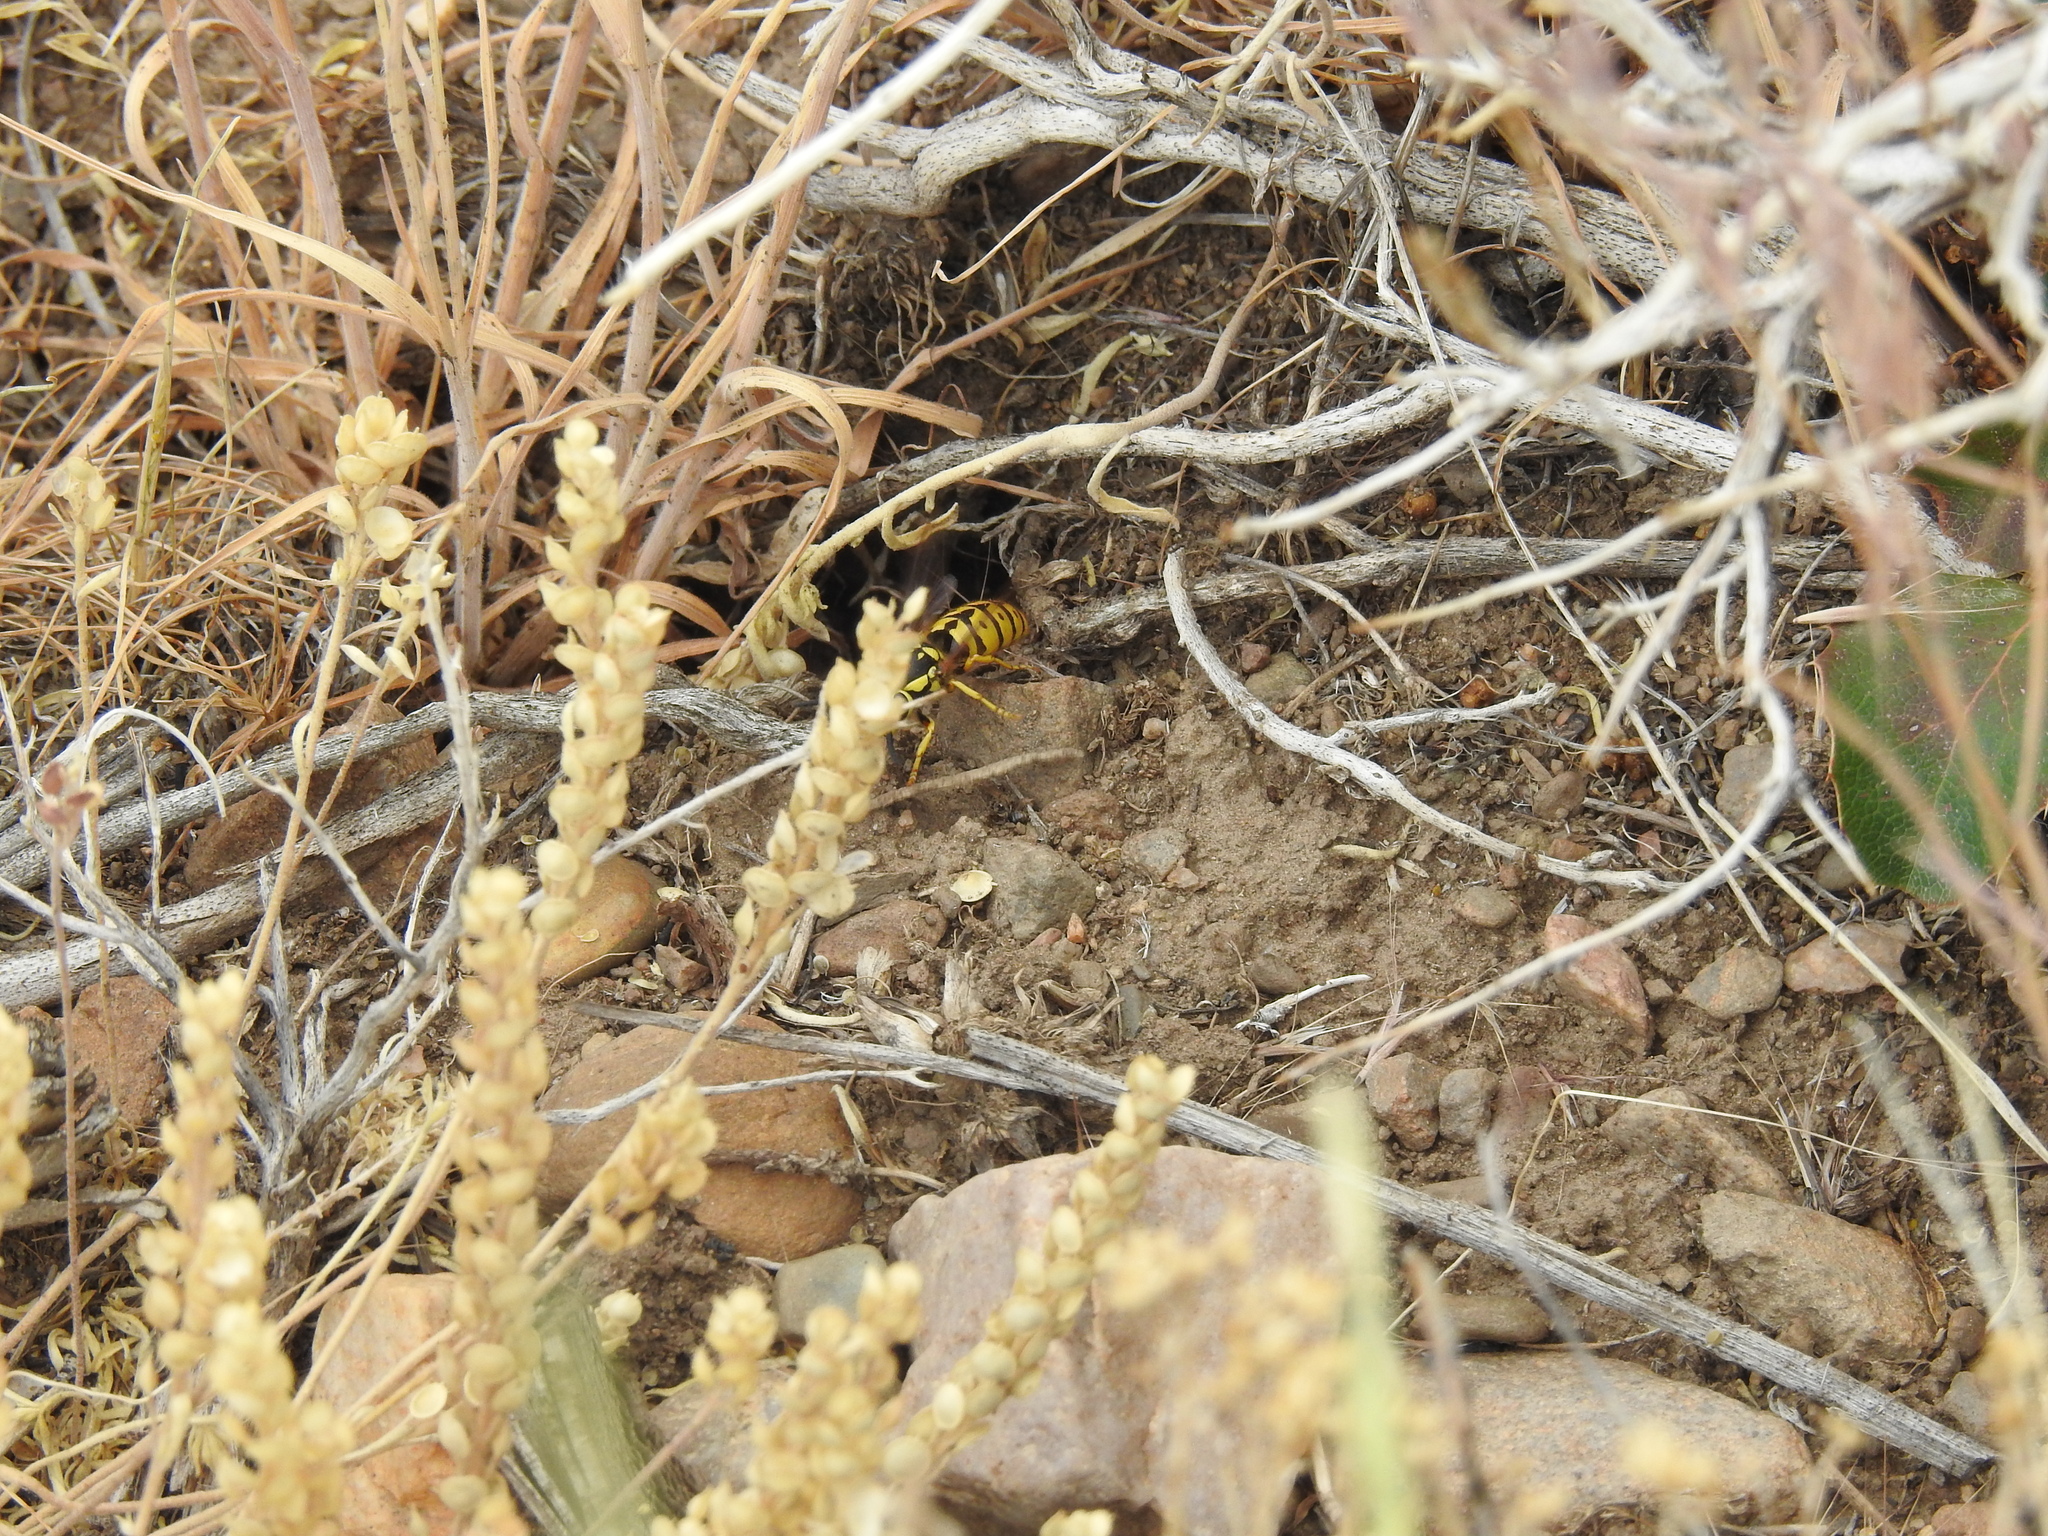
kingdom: Animalia
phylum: Arthropoda
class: Insecta
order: Hymenoptera
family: Vespidae
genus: Vespula
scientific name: Vespula pensylvanica
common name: Western yellowjacket
